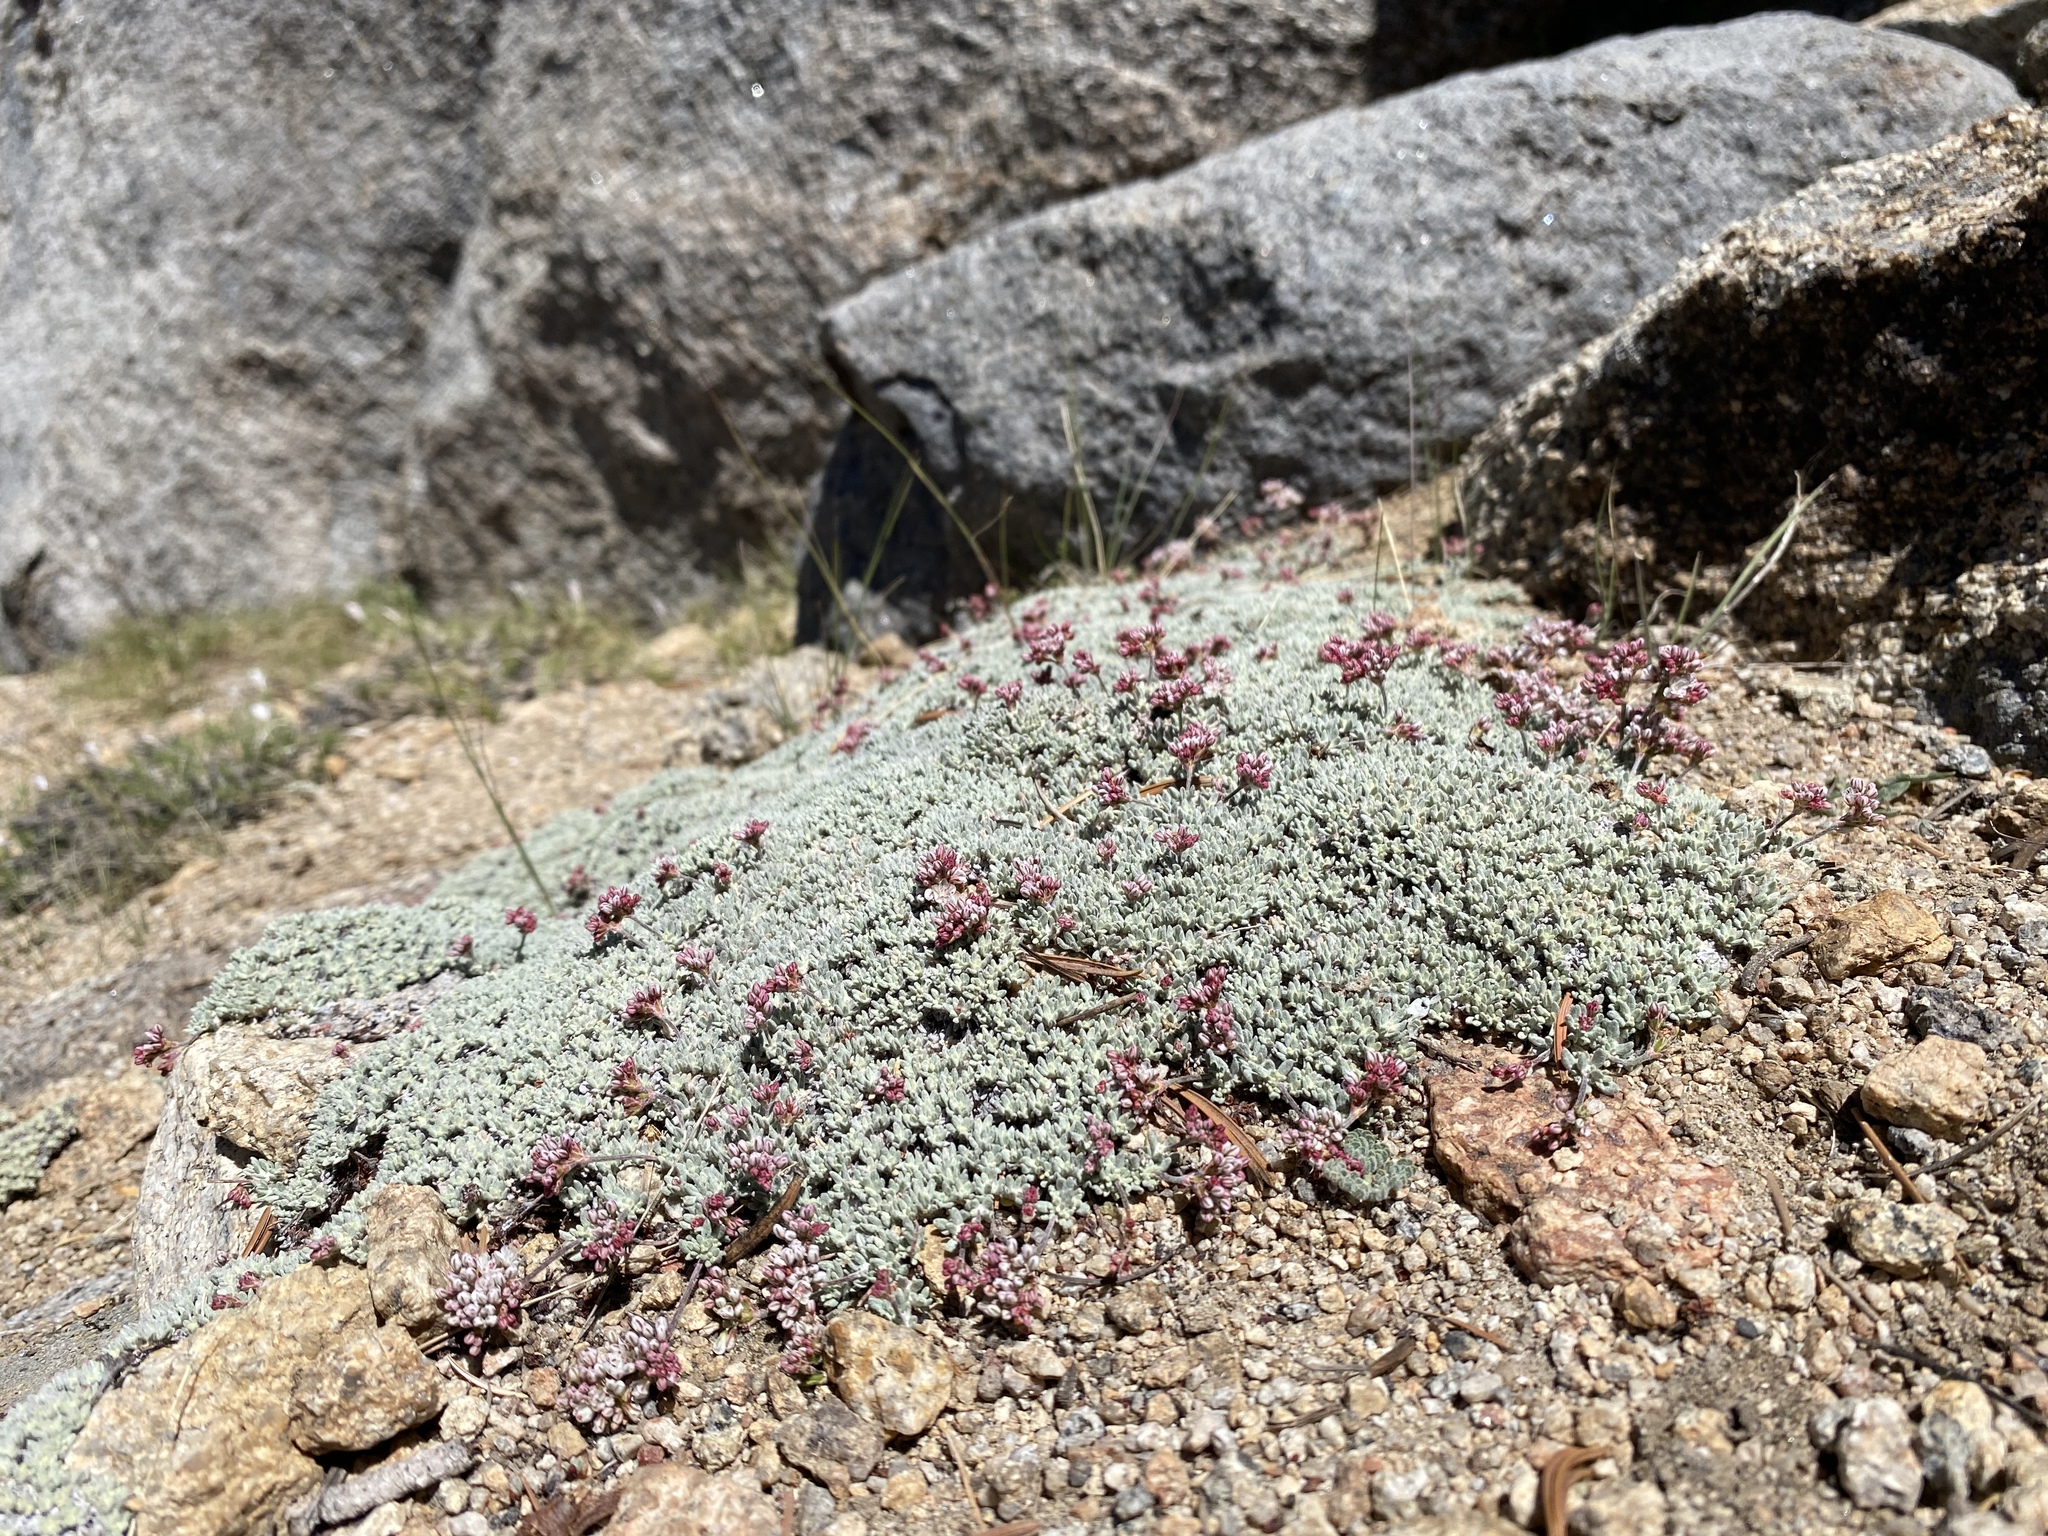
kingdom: Plantae
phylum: Tracheophyta
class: Magnoliopsida
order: Caryophyllales
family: Polygonaceae
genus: Eriogonum
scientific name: Eriogonum wrightii
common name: Bastard-sage
